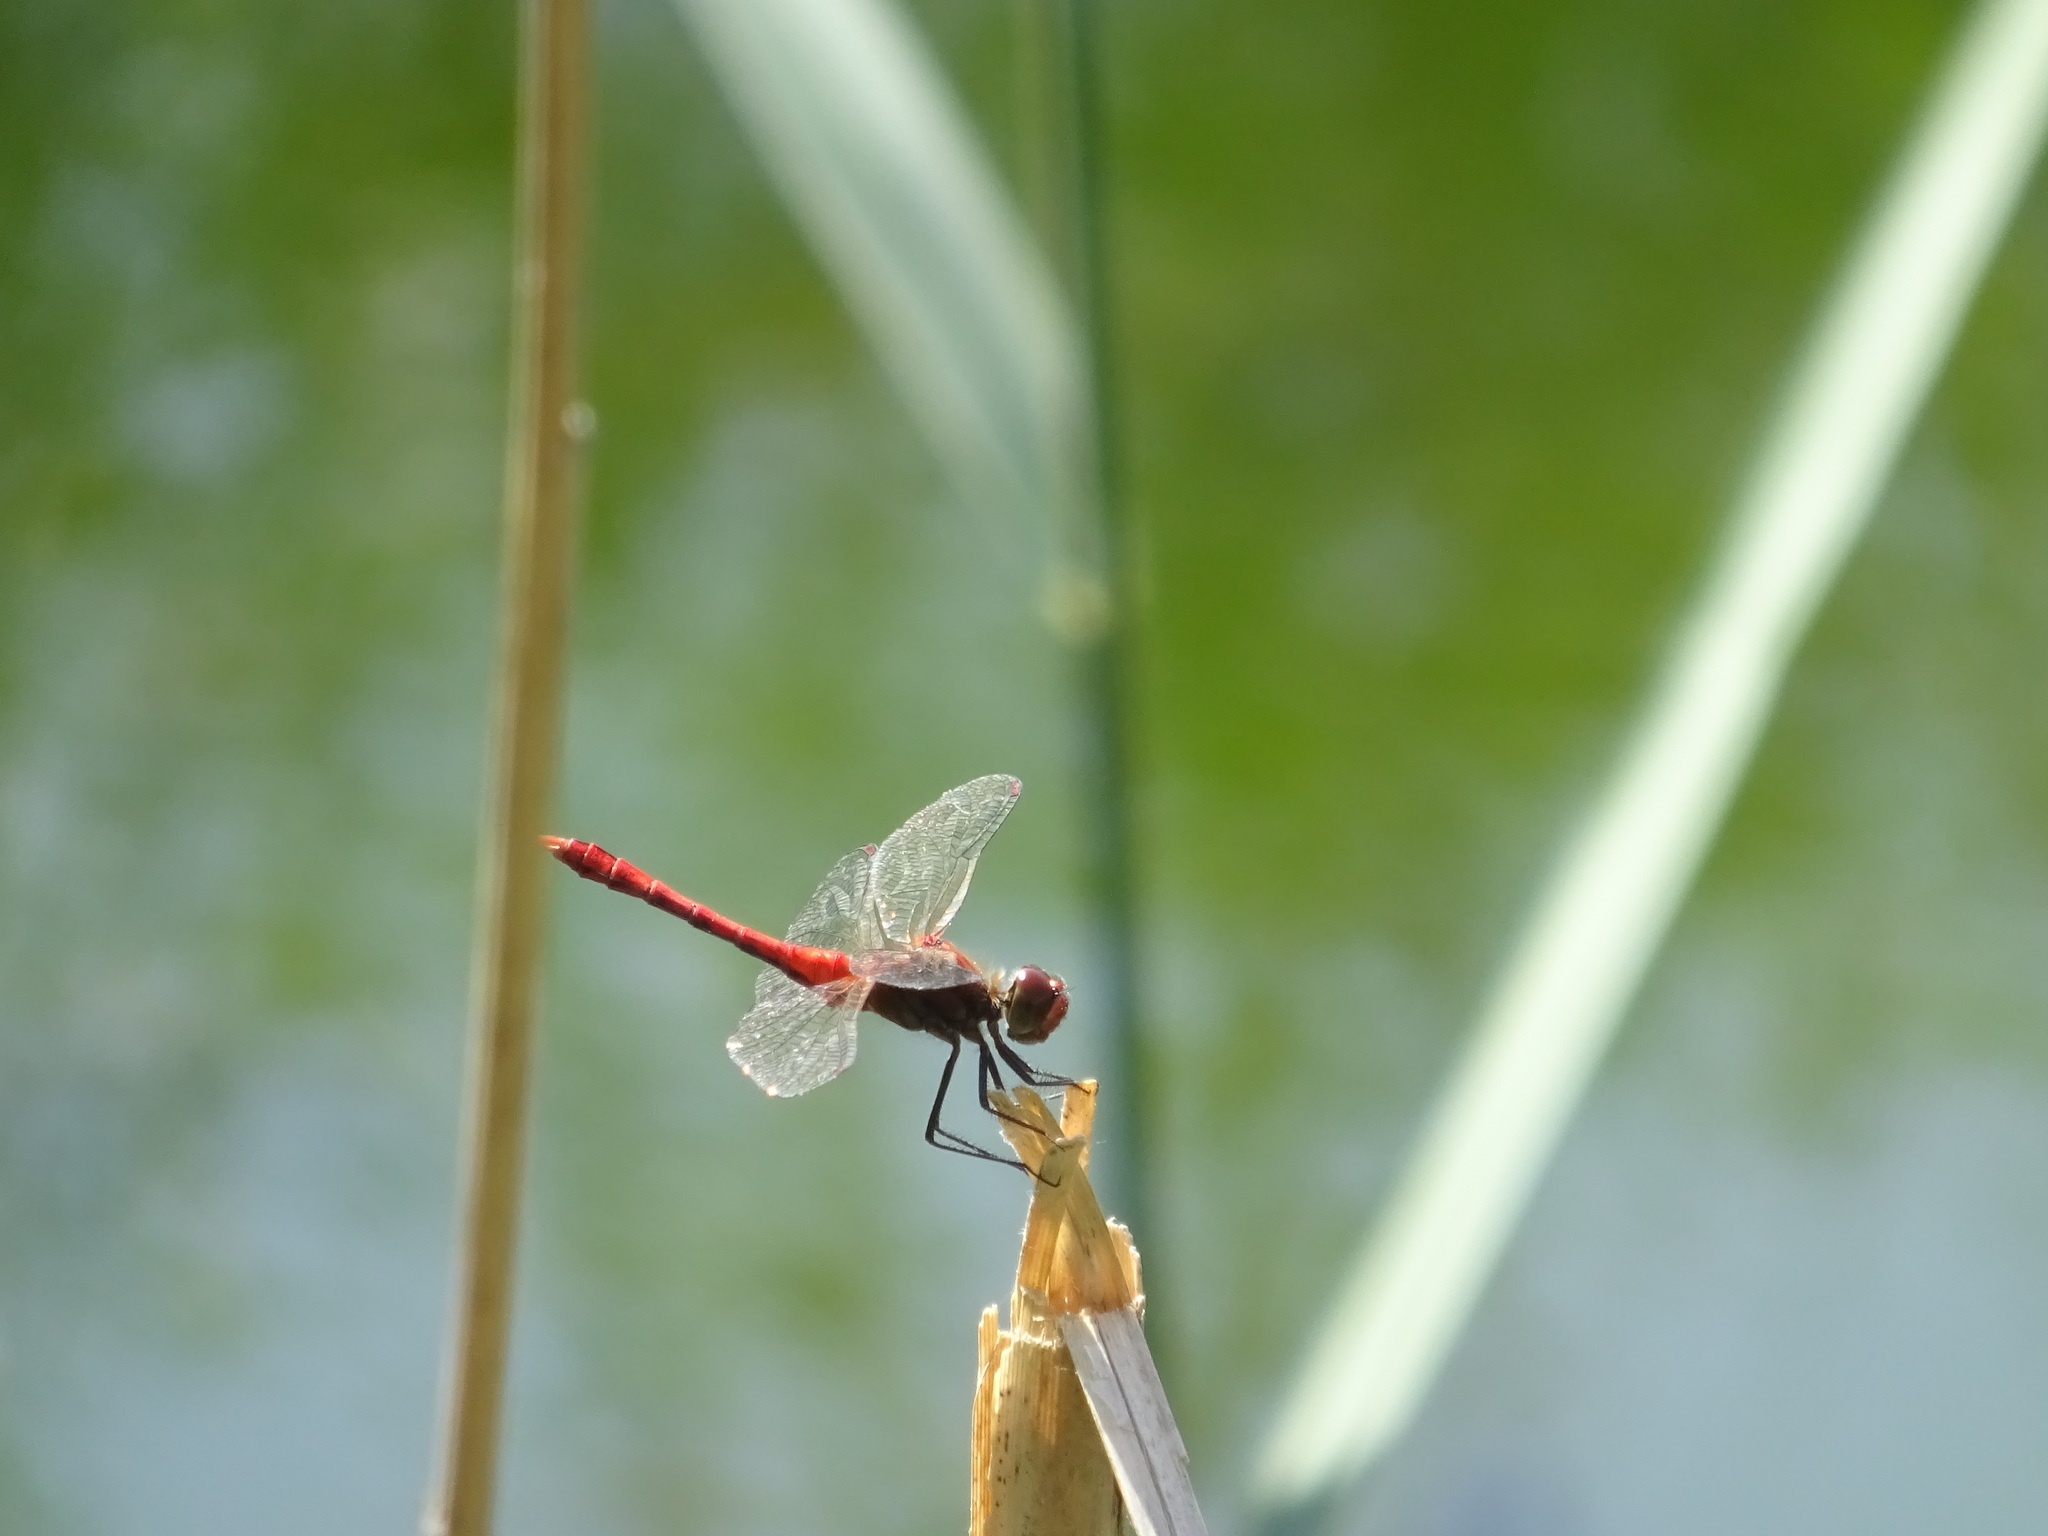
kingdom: Animalia
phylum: Arthropoda
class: Insecta
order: Odonata
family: Libellulidae
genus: Sympetrum
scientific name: Sympetrum sanguineum
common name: Ruddy darter
